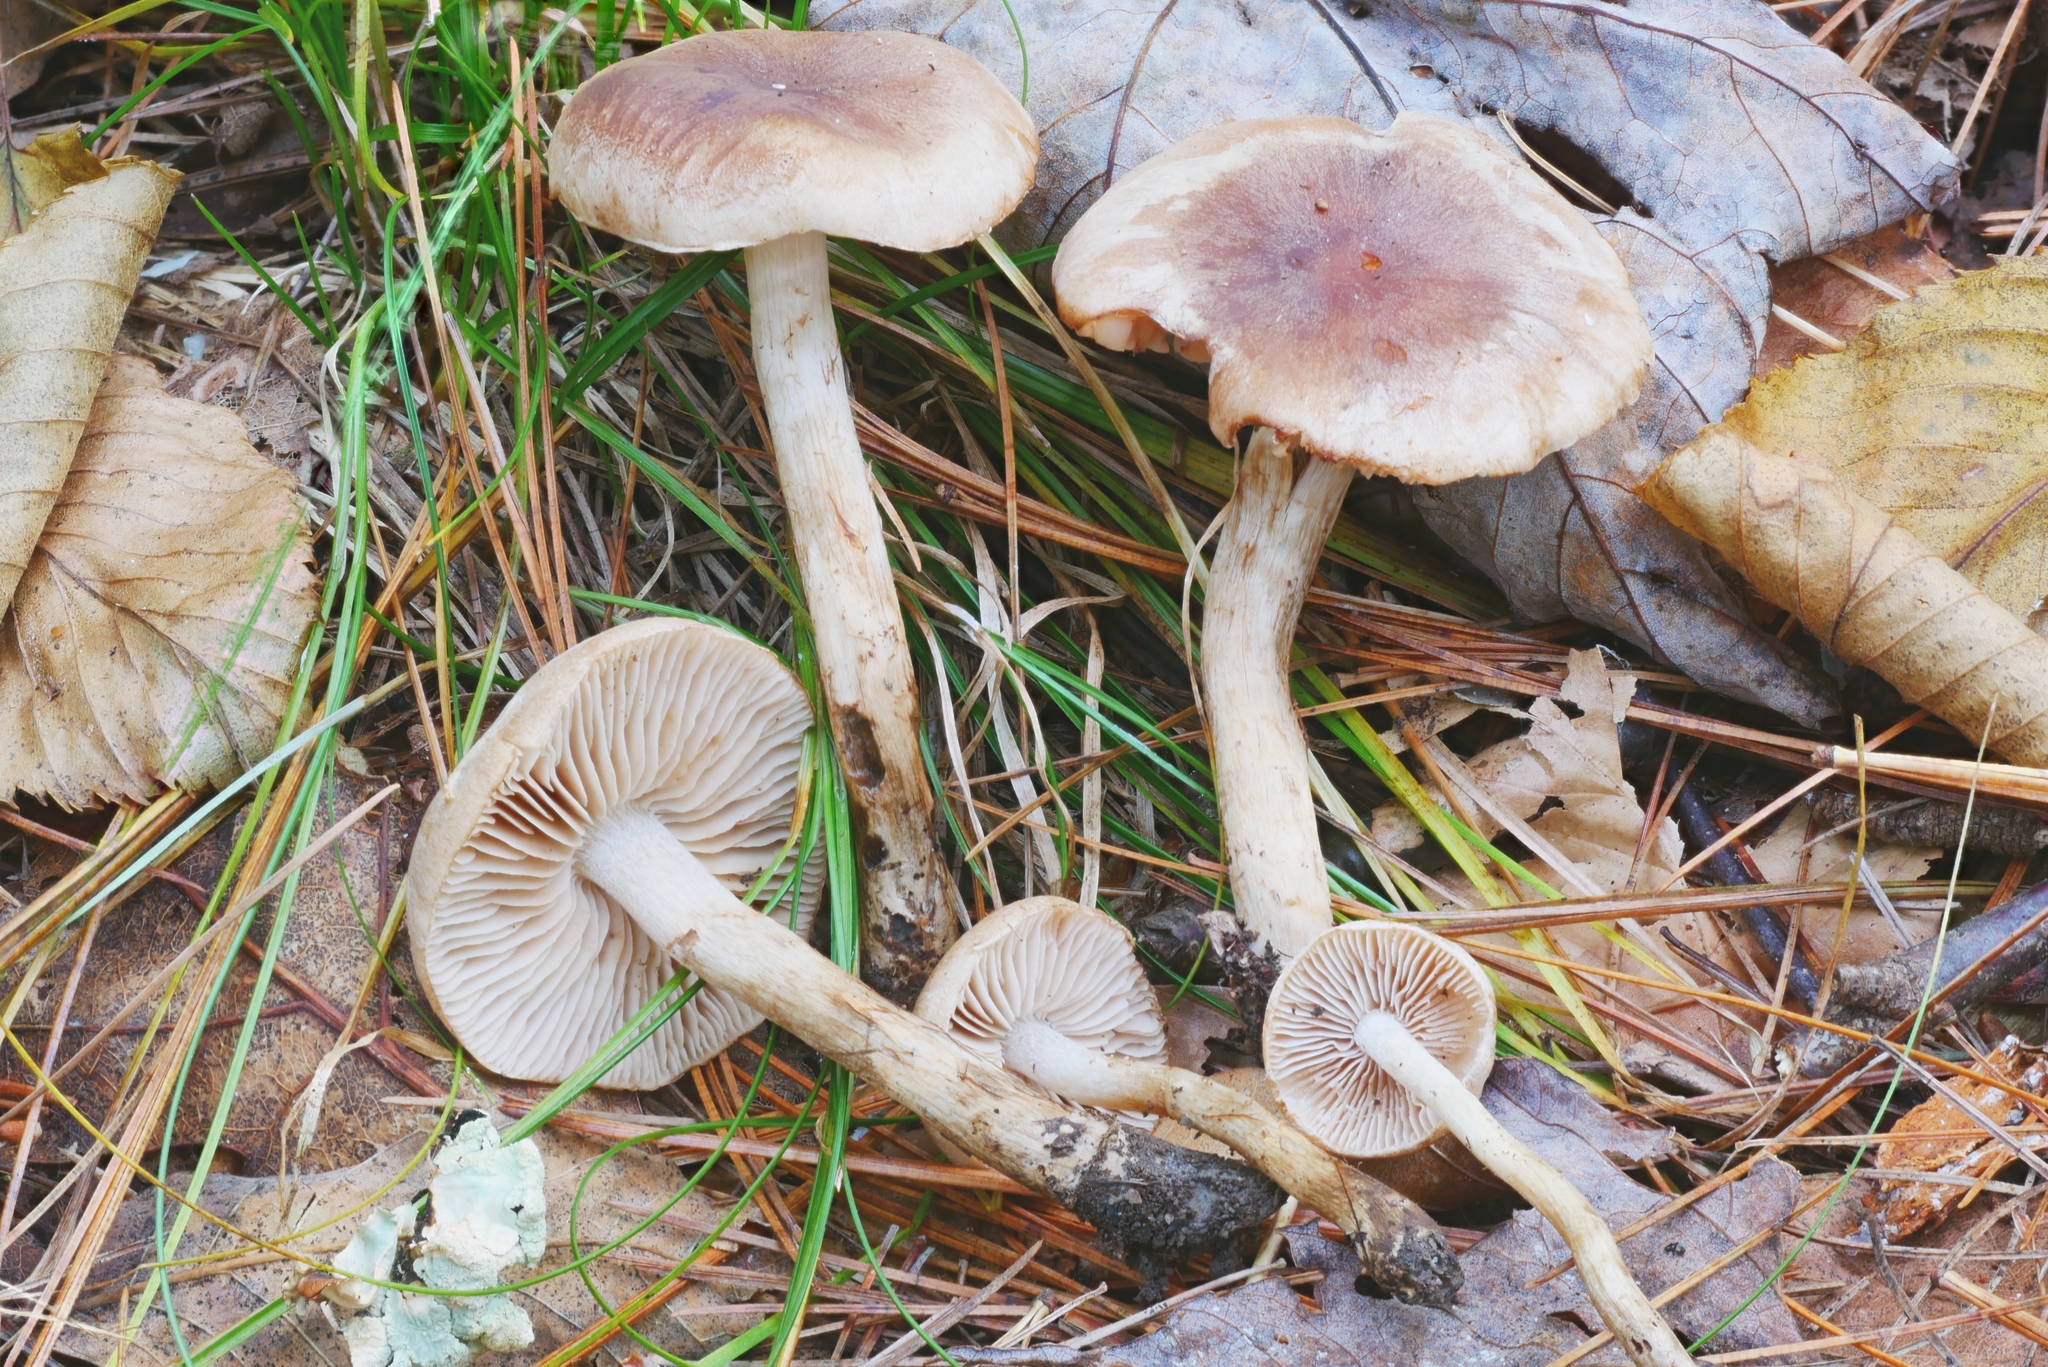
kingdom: Fungi
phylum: Basidiomycota
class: Agaricomycetes
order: Agaricales
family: Hymenogastraceae
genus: Hebeloma
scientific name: Hebeloma excedens
